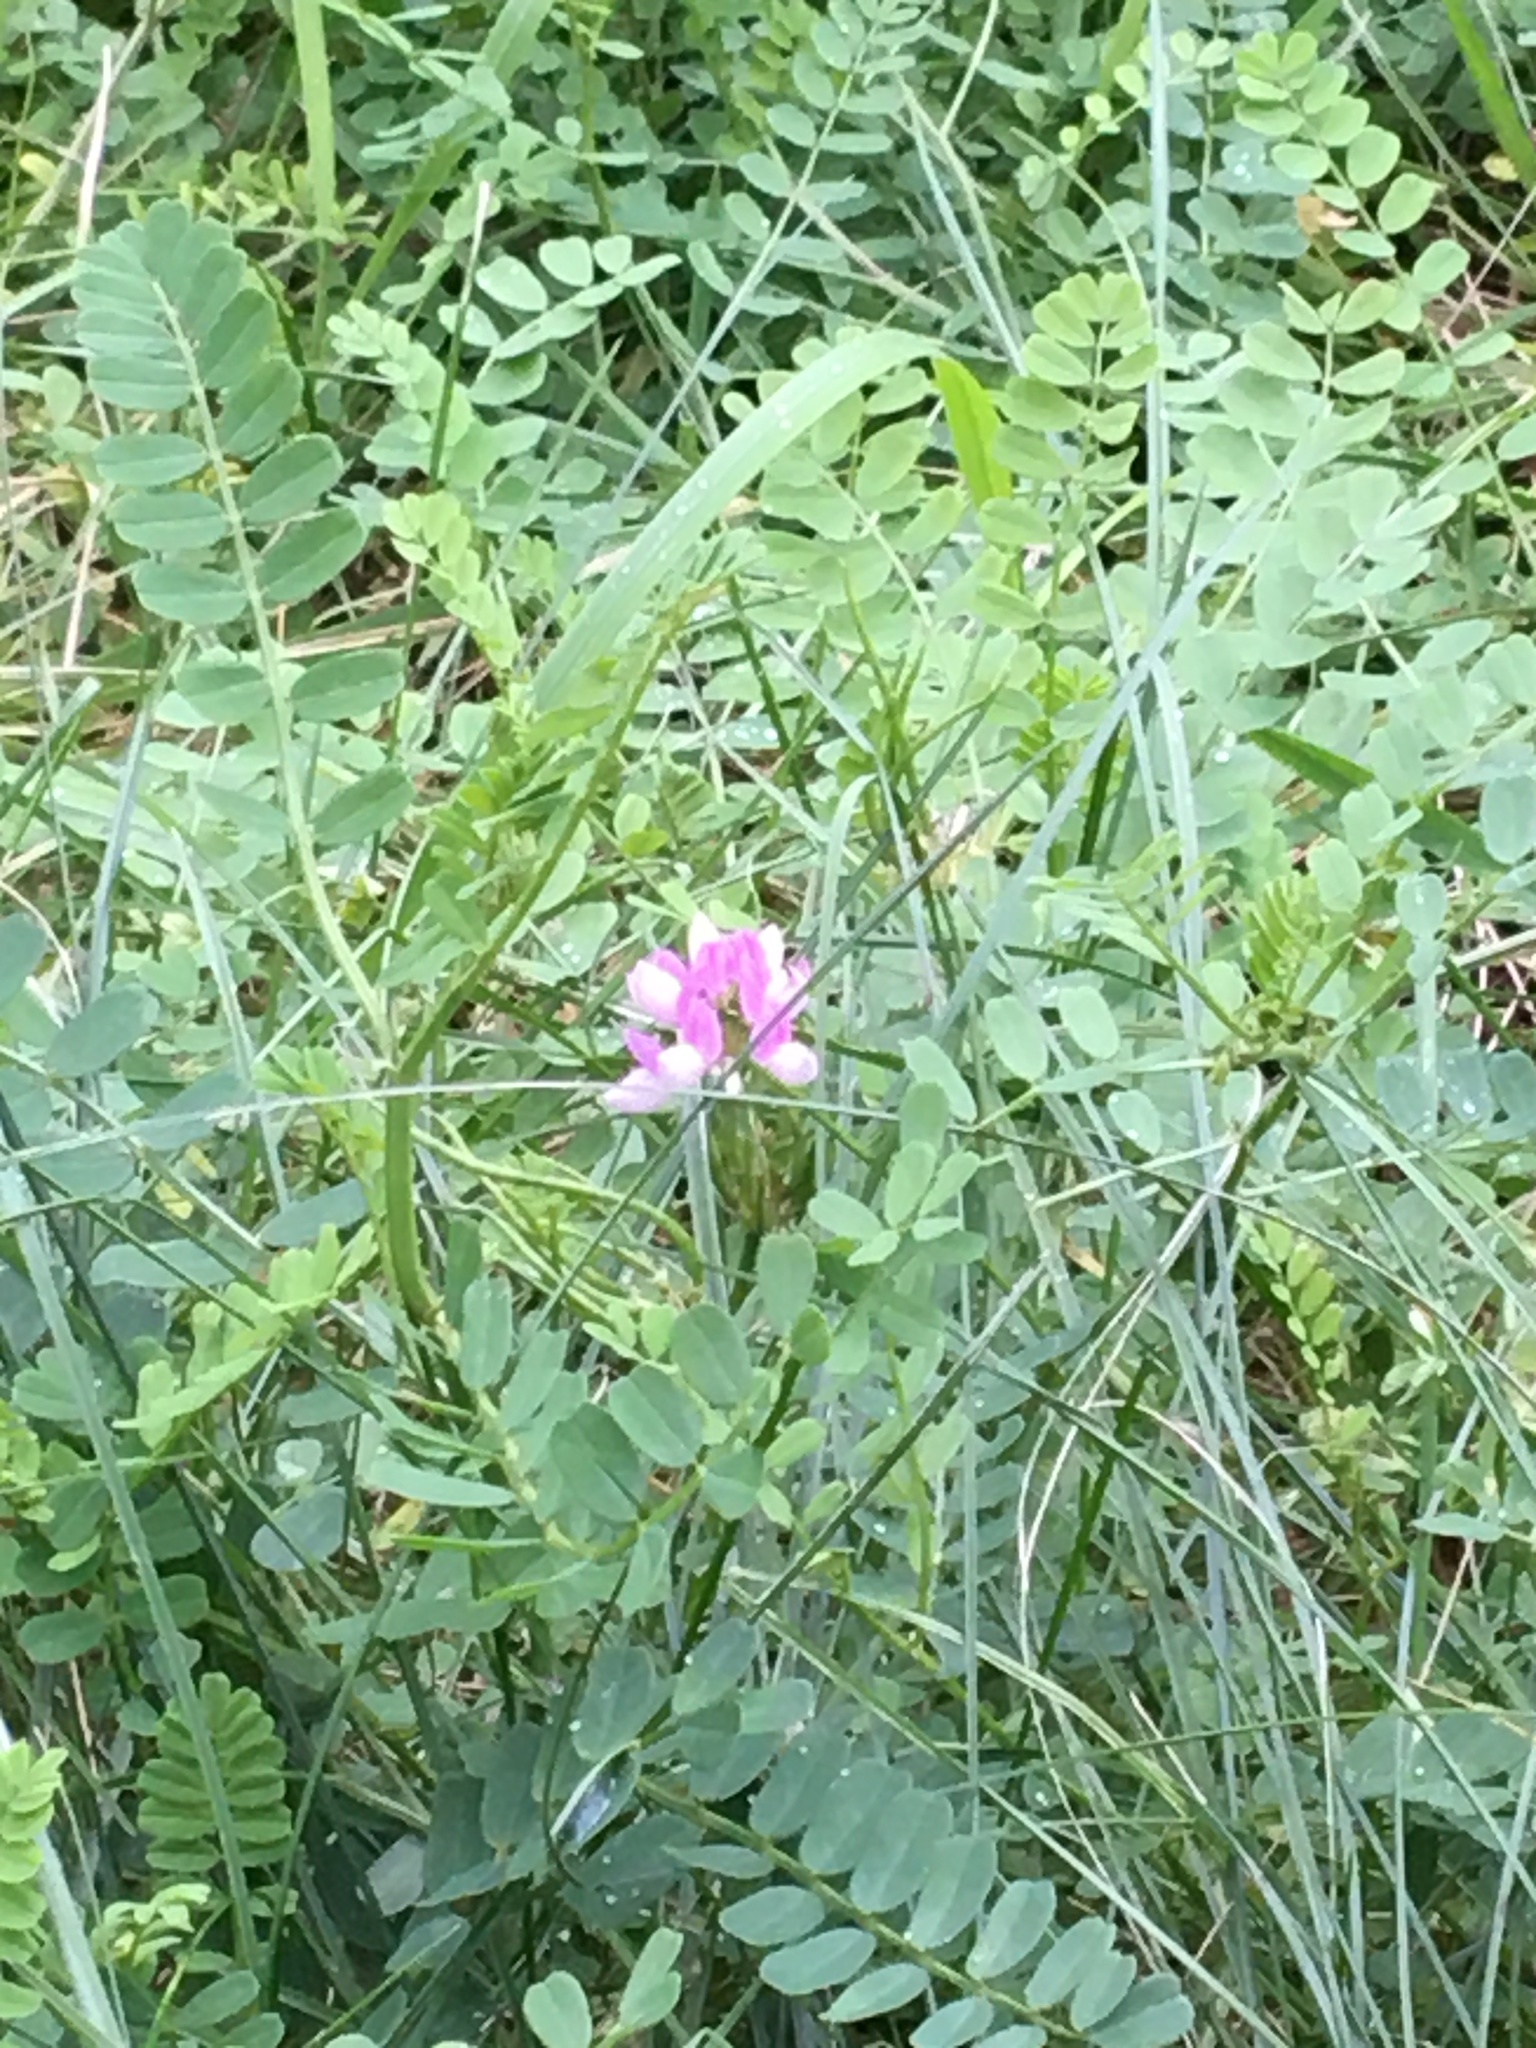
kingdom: Plantae
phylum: Tracheophyta
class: Magnoliopsida
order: Fabales
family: Fabaceae
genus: Coronilla
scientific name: Coronilla varia
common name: Crownvetch
